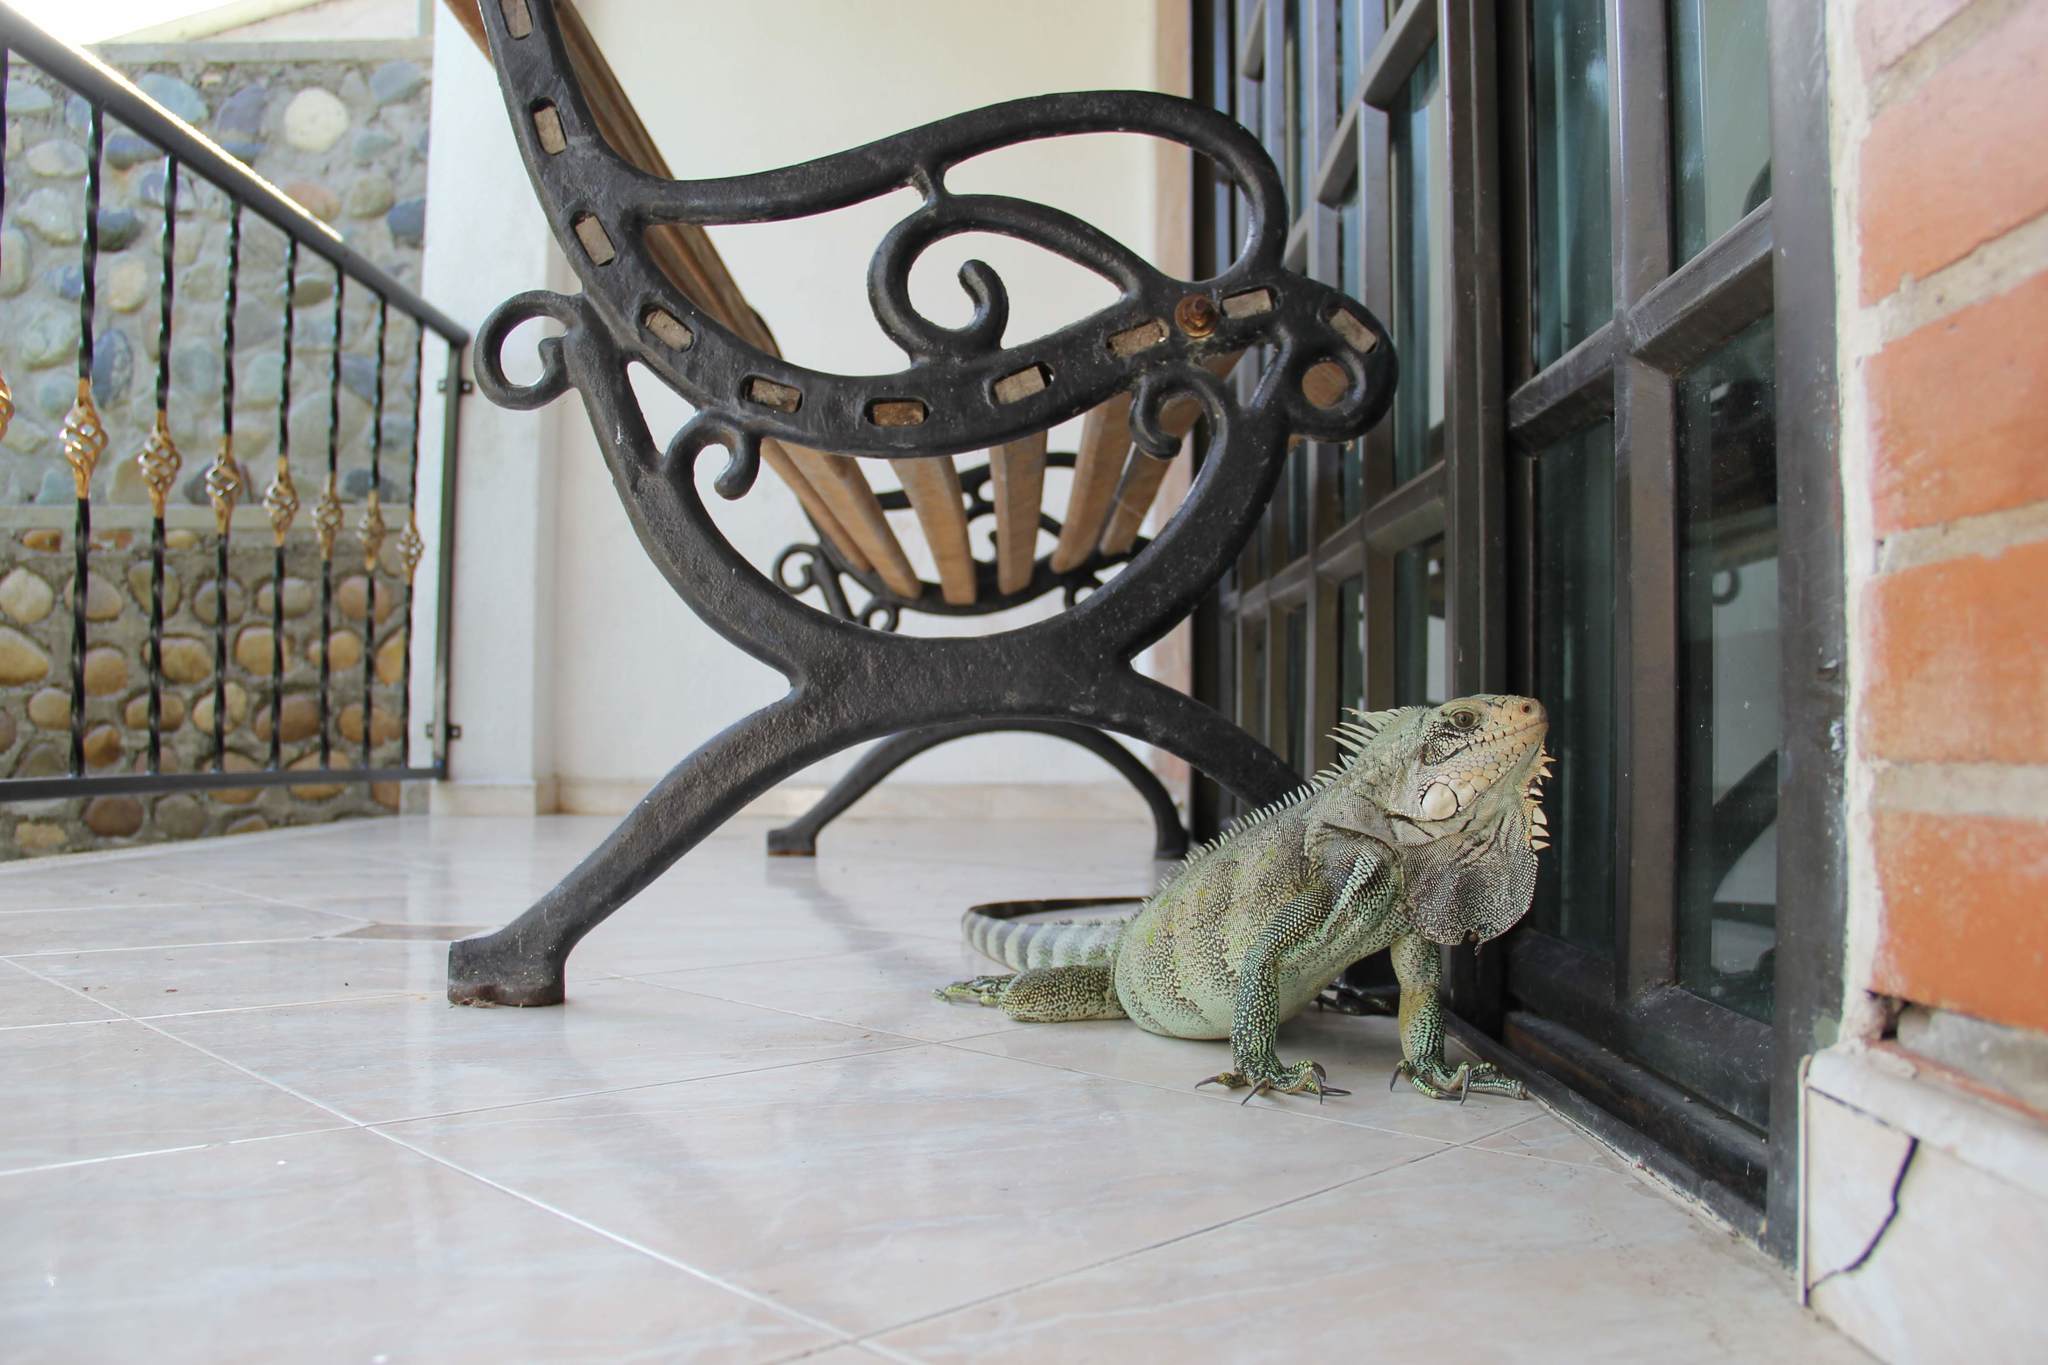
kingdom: Animalia
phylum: Chordata
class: Squamata
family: Iguanidae
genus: Iguana
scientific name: Iguana iguana
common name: Green iguana
